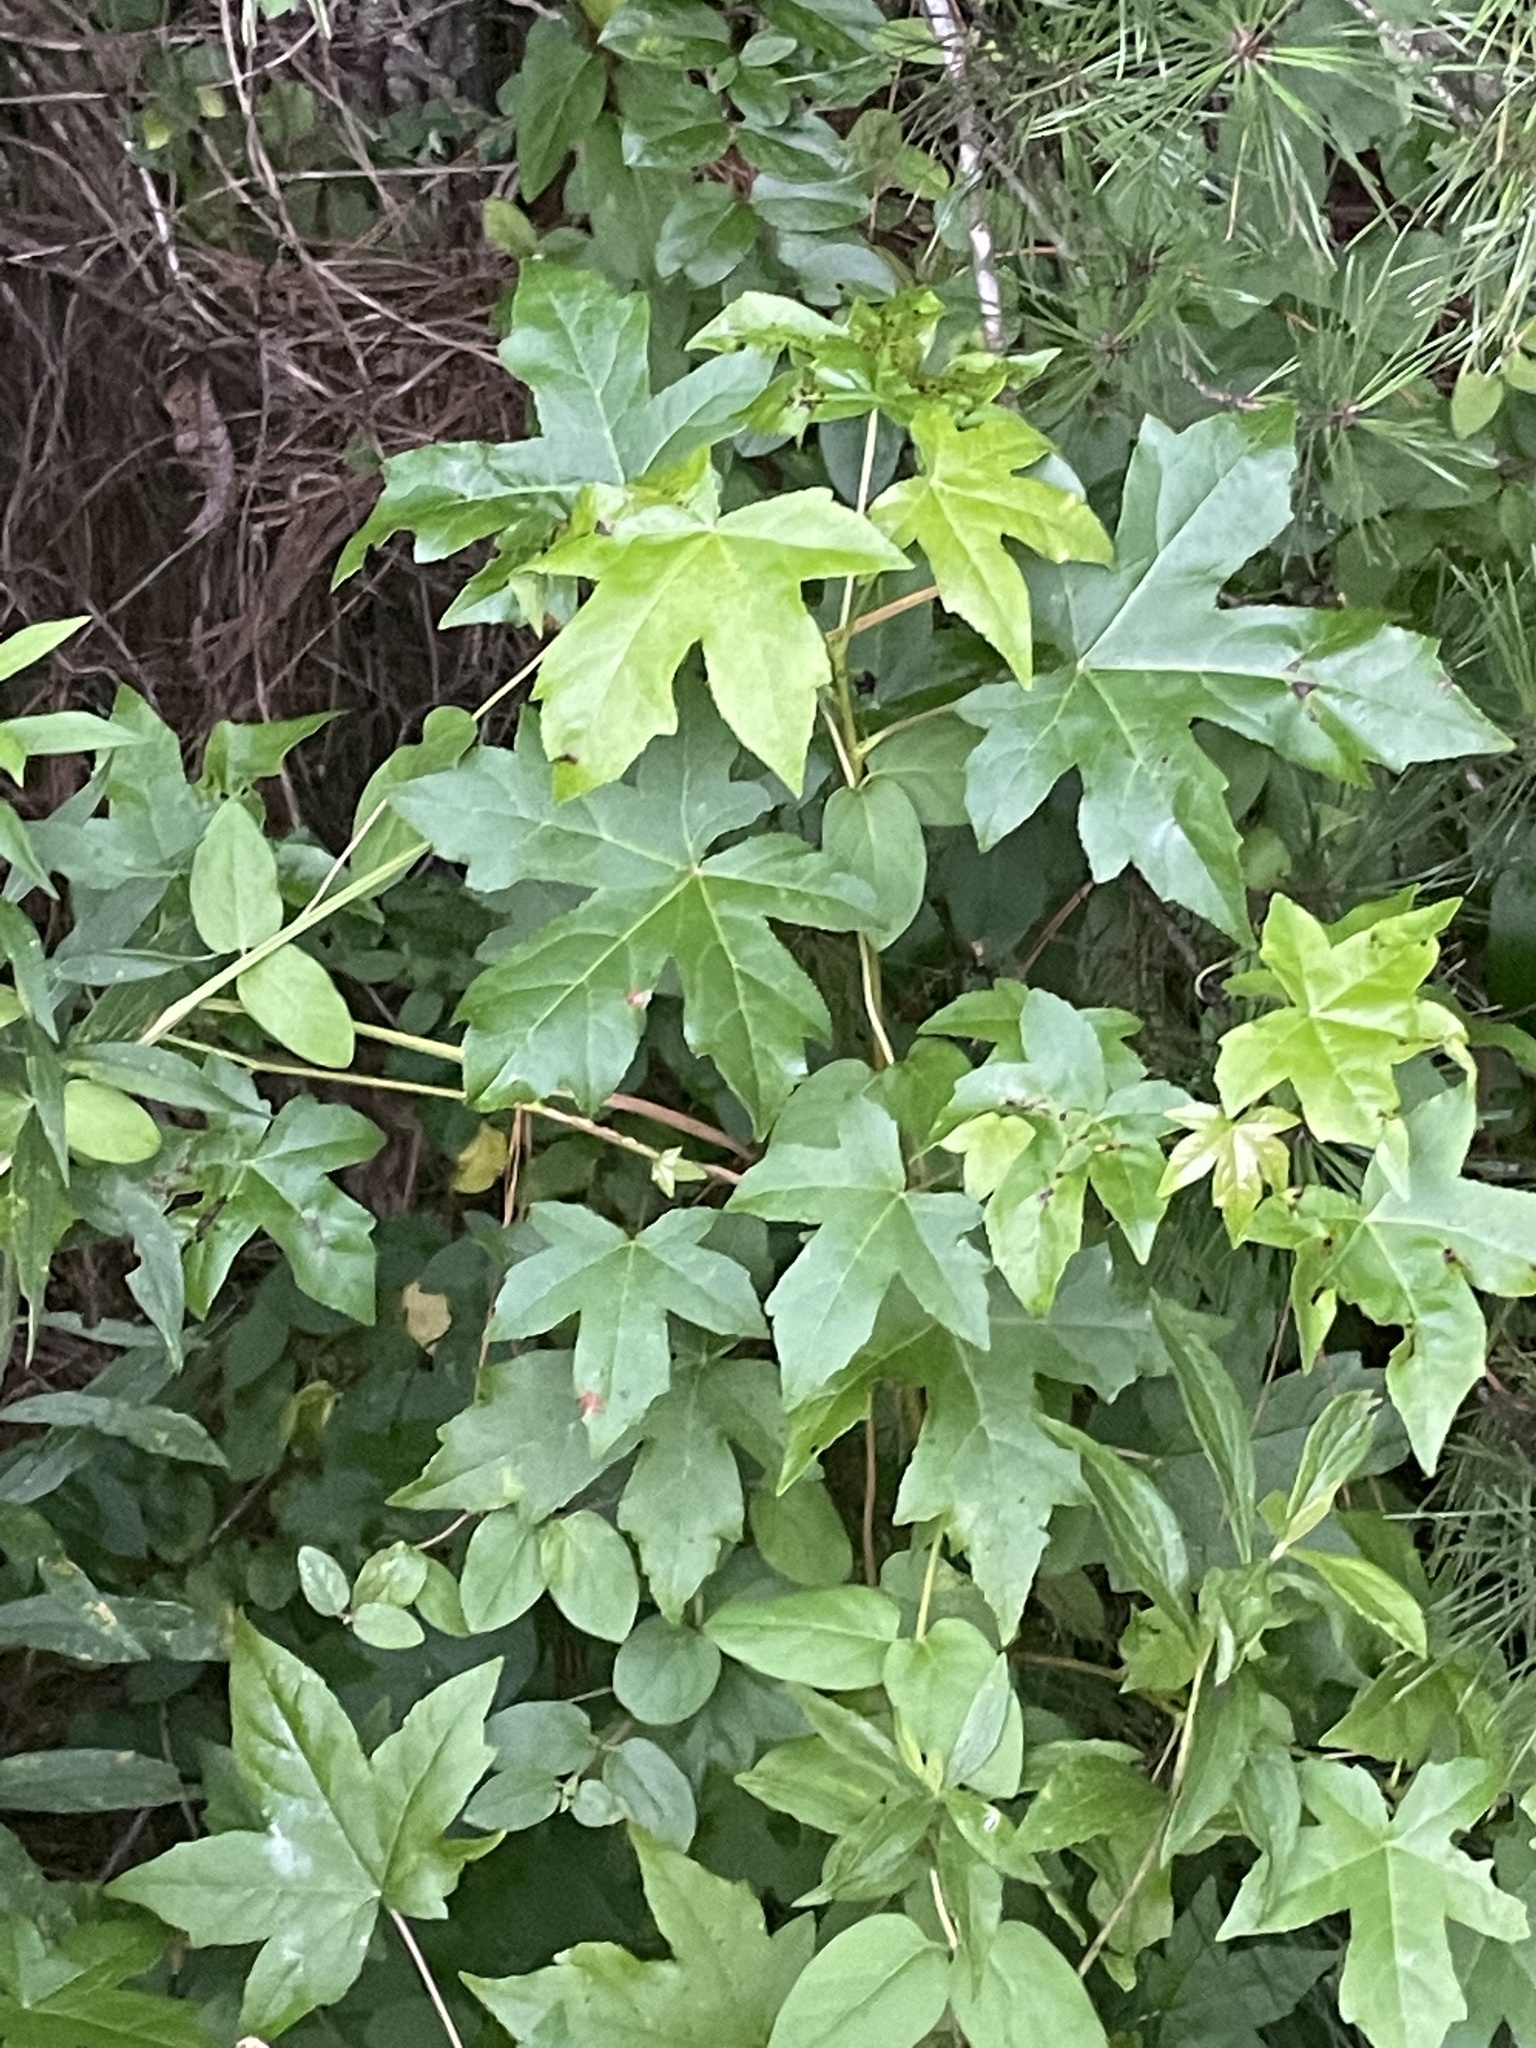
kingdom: Plantae
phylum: Tracheophyta
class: Magnoliopsida
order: Saxifragales
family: Altingiaceae
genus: Liquidambar
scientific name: Liquidambar styraciflua
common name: Sweet gum
